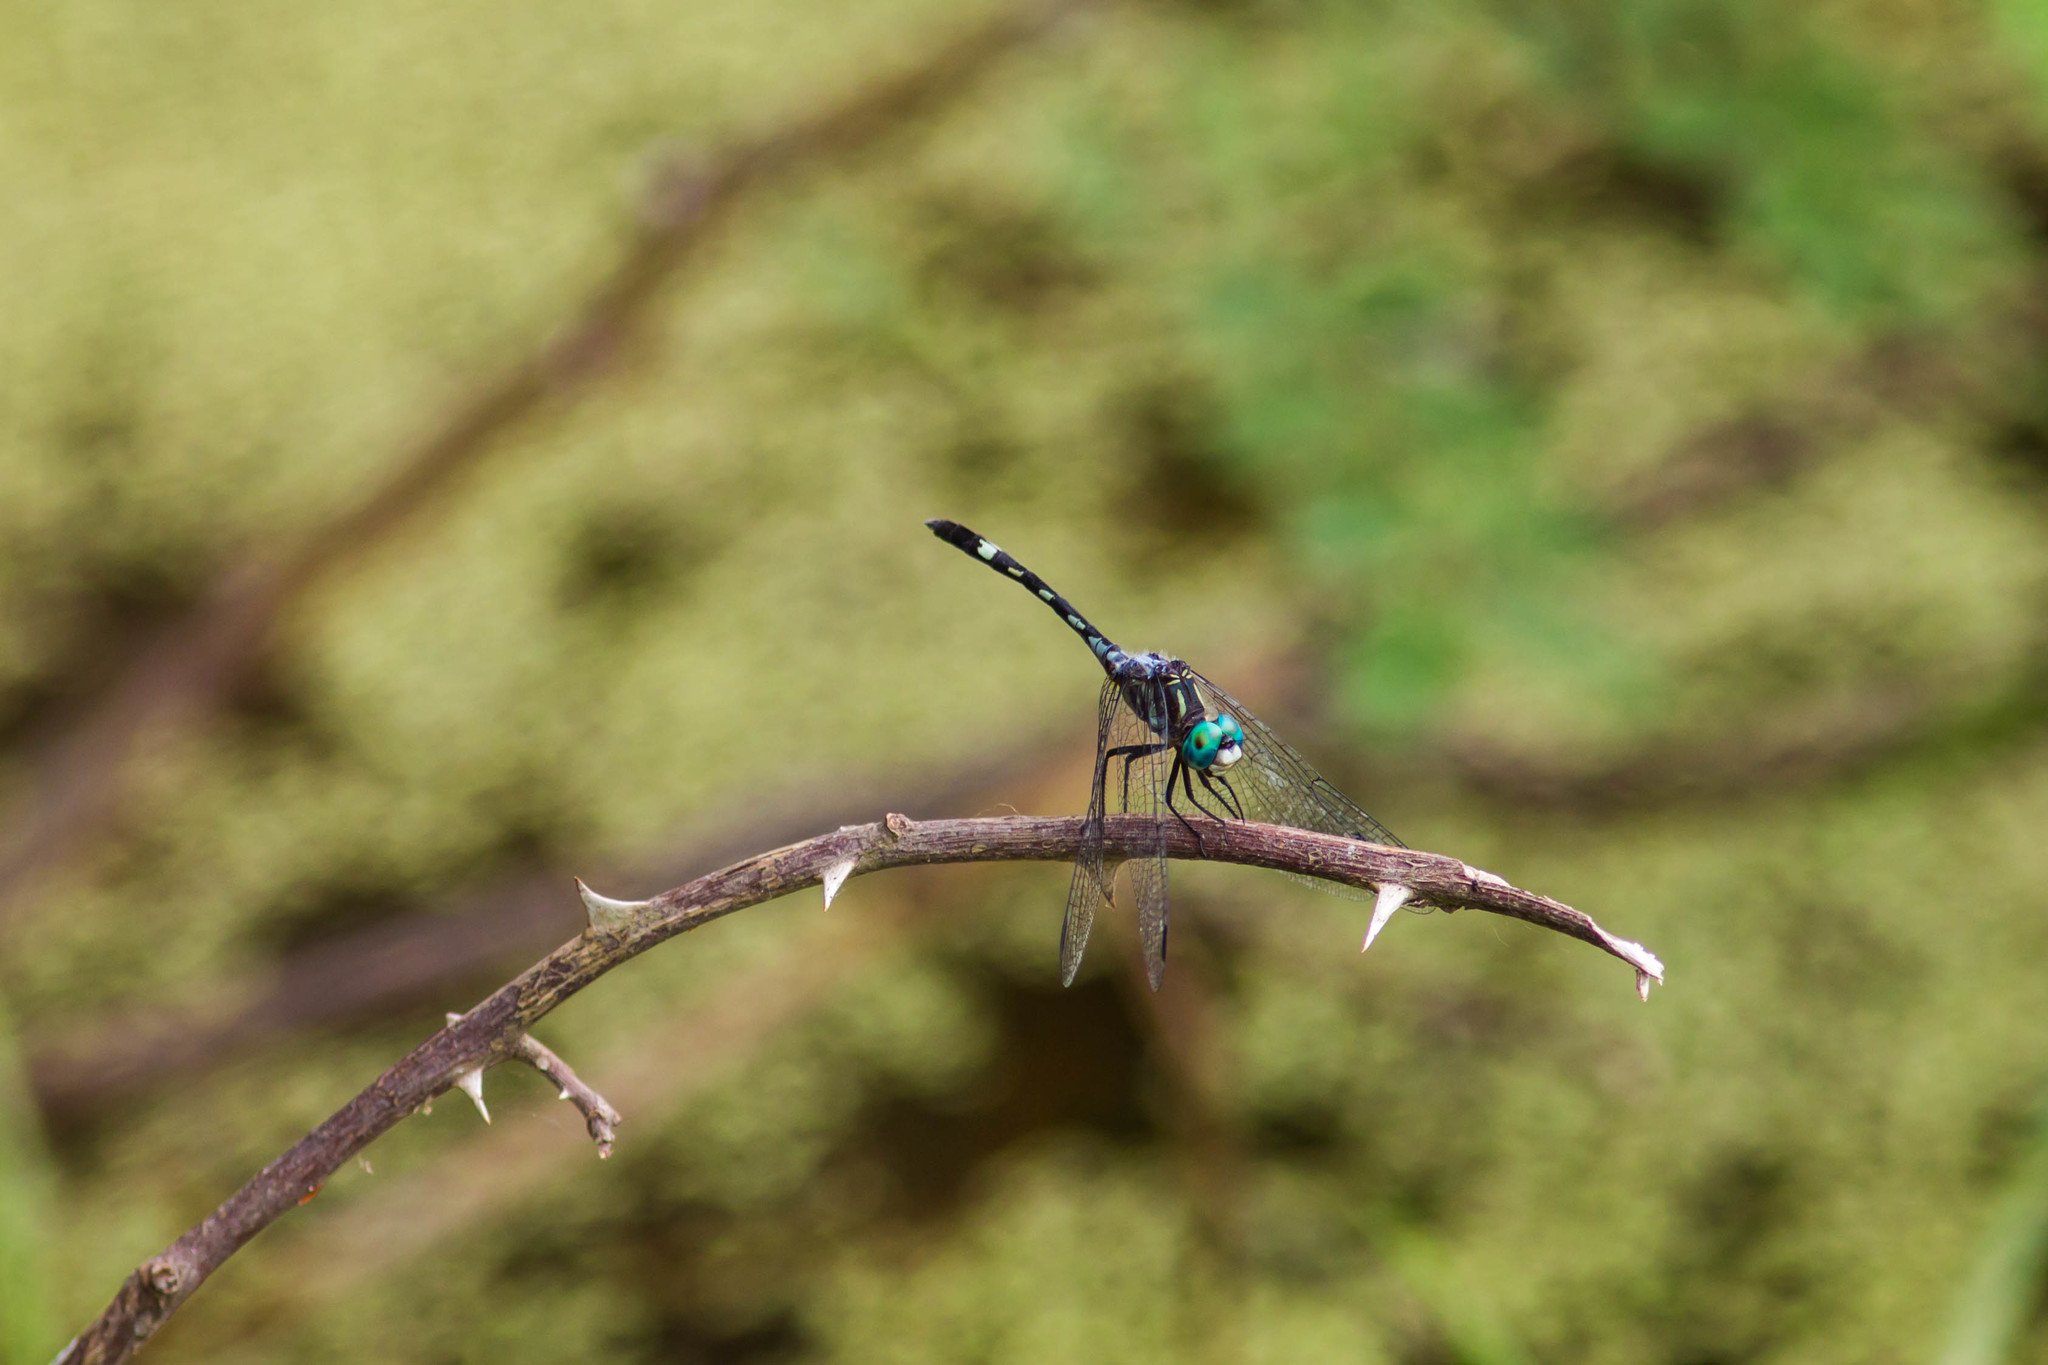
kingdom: Animalia
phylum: Arthropoda
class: Insecta
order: Odonata
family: Libellulidae
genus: Micrathyria
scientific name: Micrathyria hagenii
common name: Thornbush dasher
